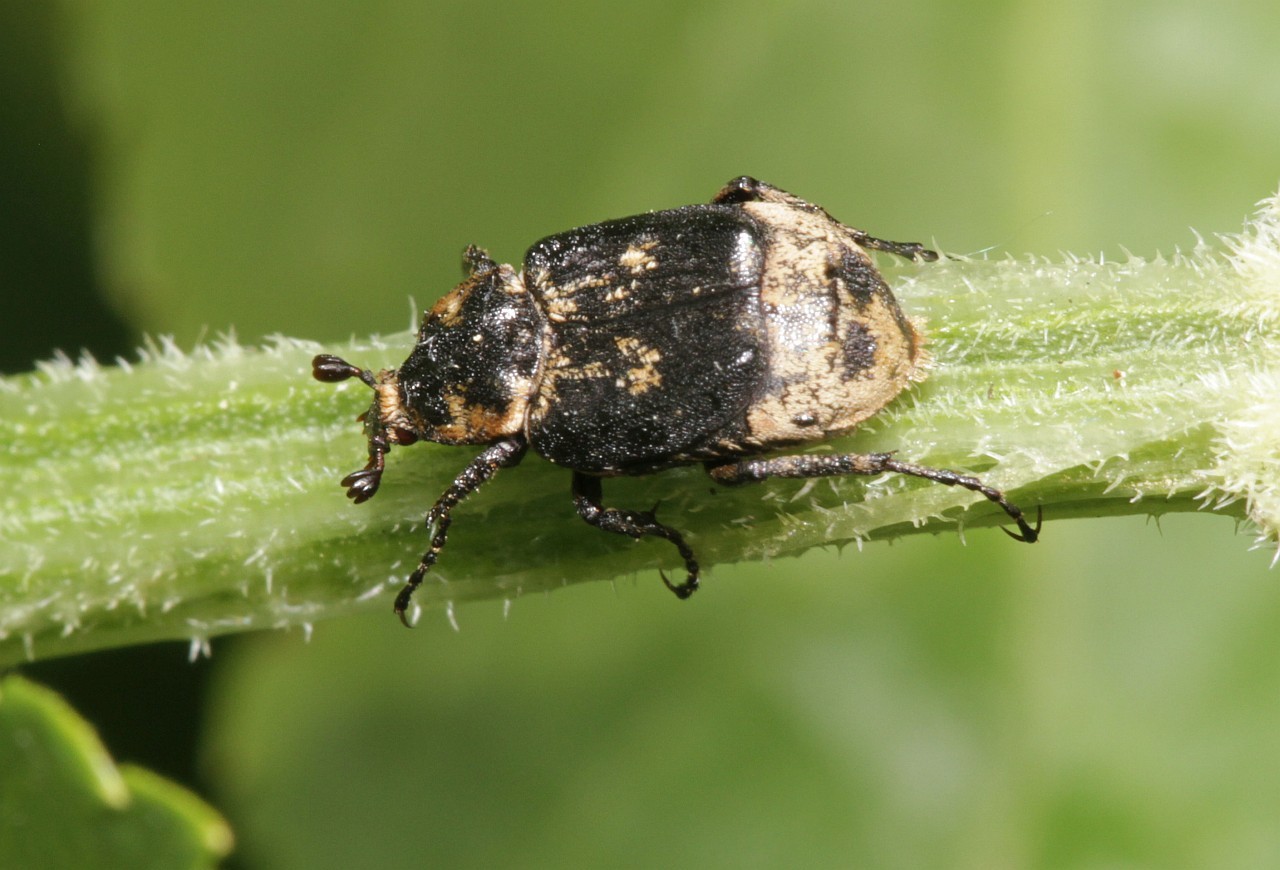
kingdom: Animalia
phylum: Arthropoda
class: Insecta
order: Coleoptera
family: Scarabaeidae
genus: Valgus
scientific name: Valgus hemipterus
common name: Bug flower chafer
